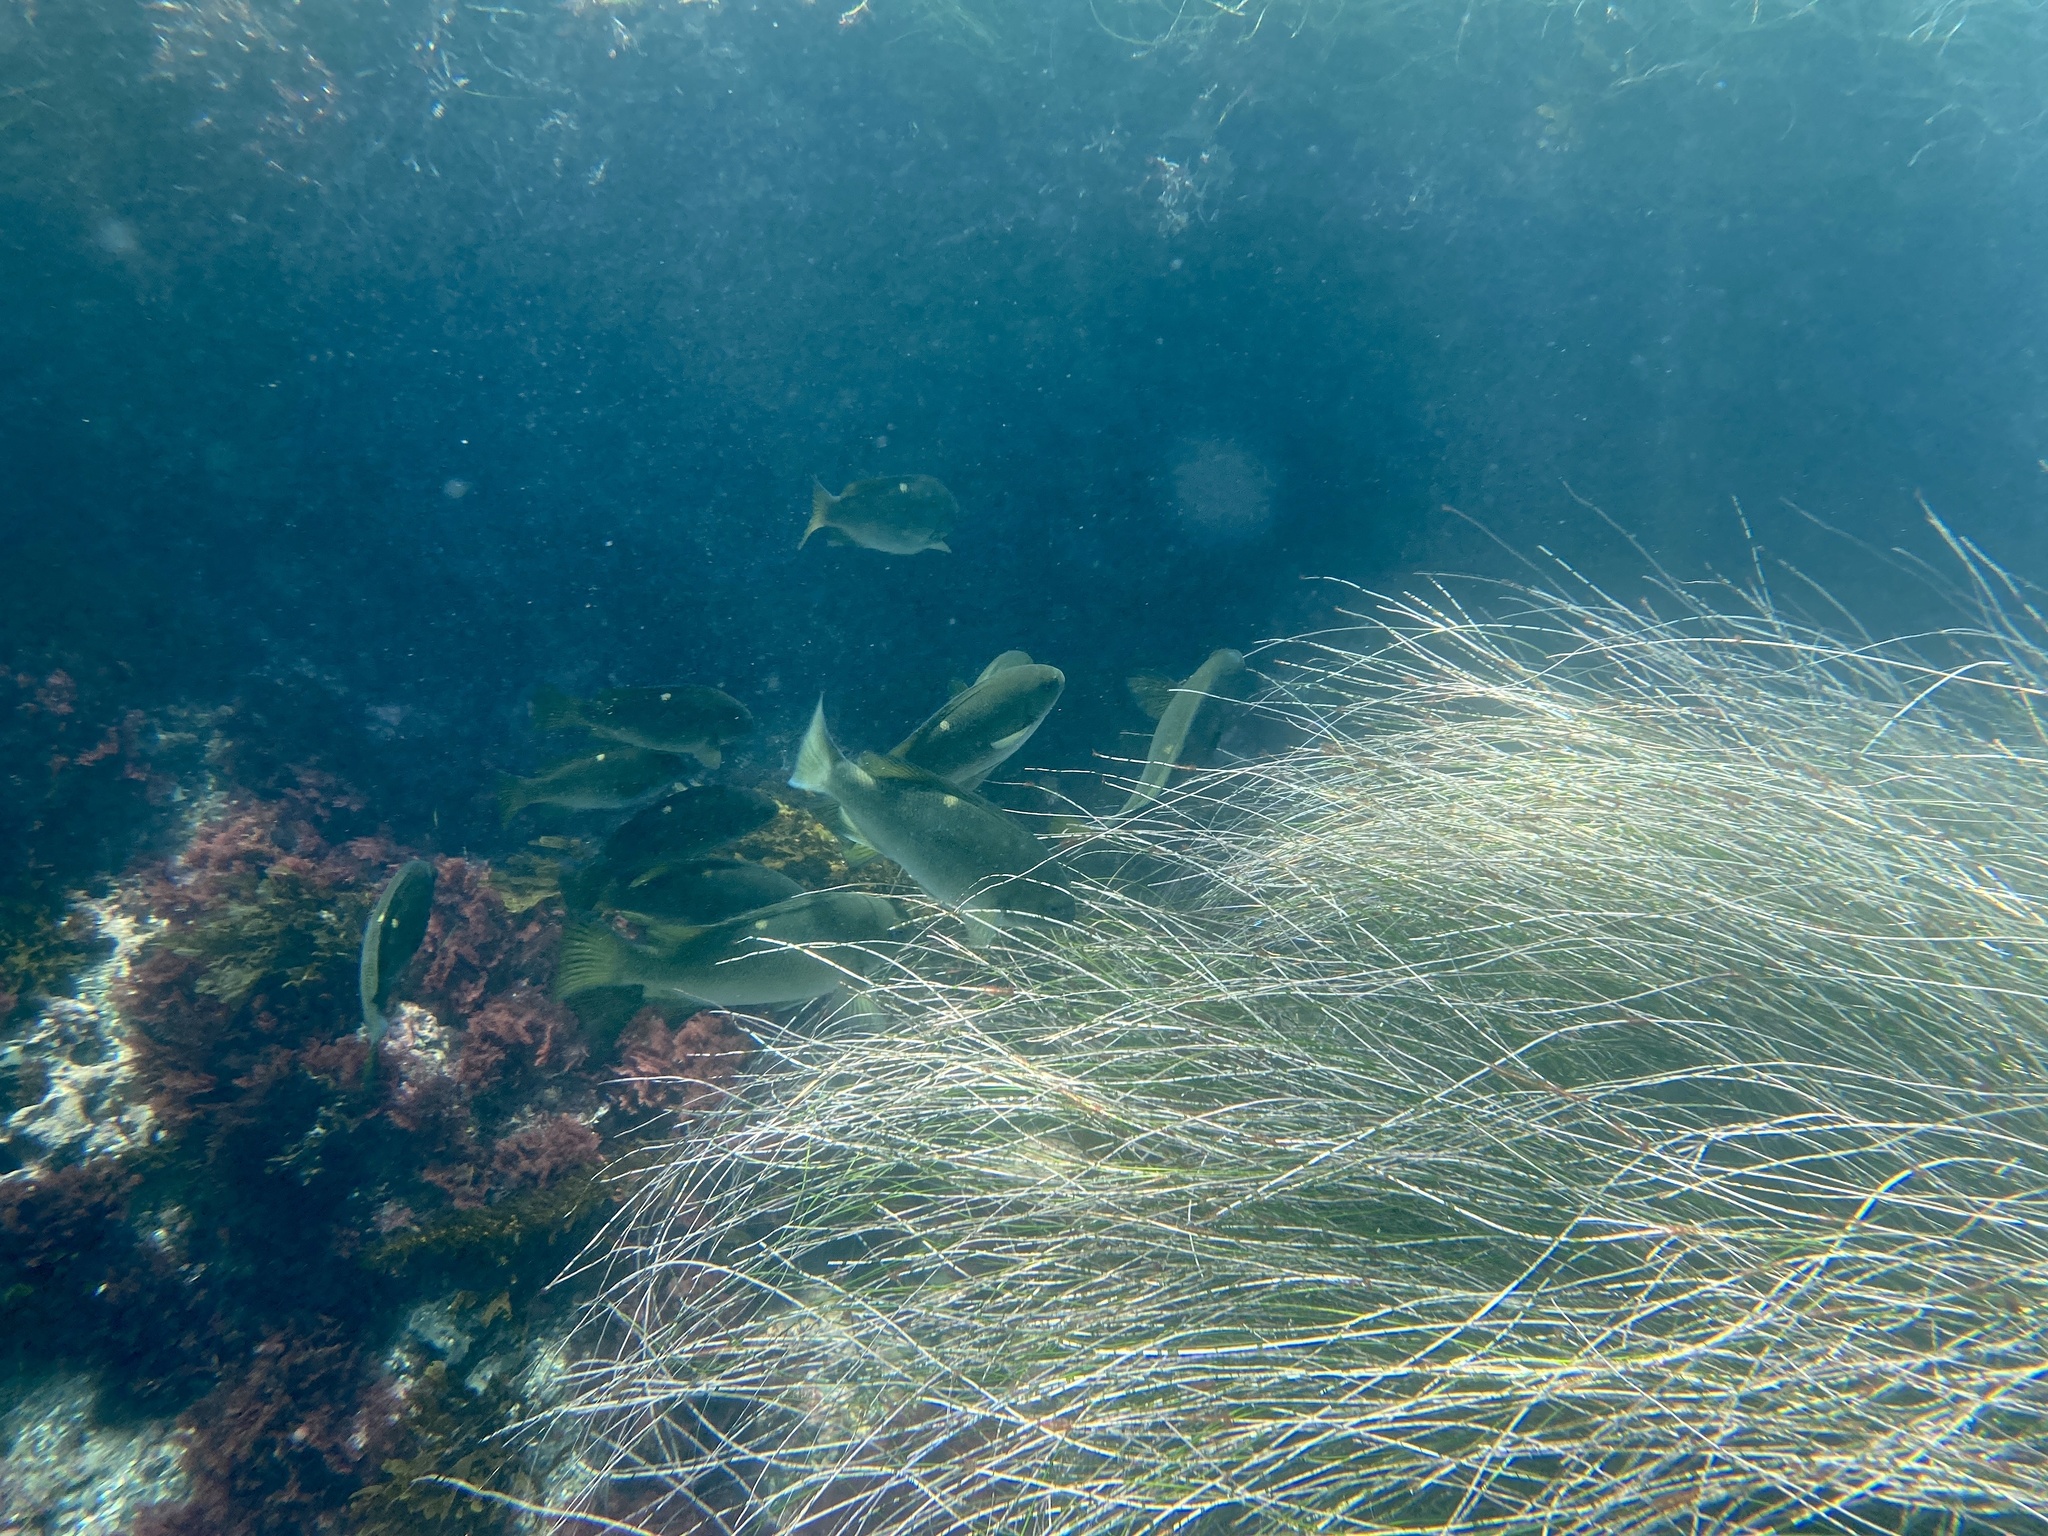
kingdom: Animalia
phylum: Chordata
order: Perciformes
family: Kyphosidae
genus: Girella
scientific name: Girella nigricans
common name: Opaleye
